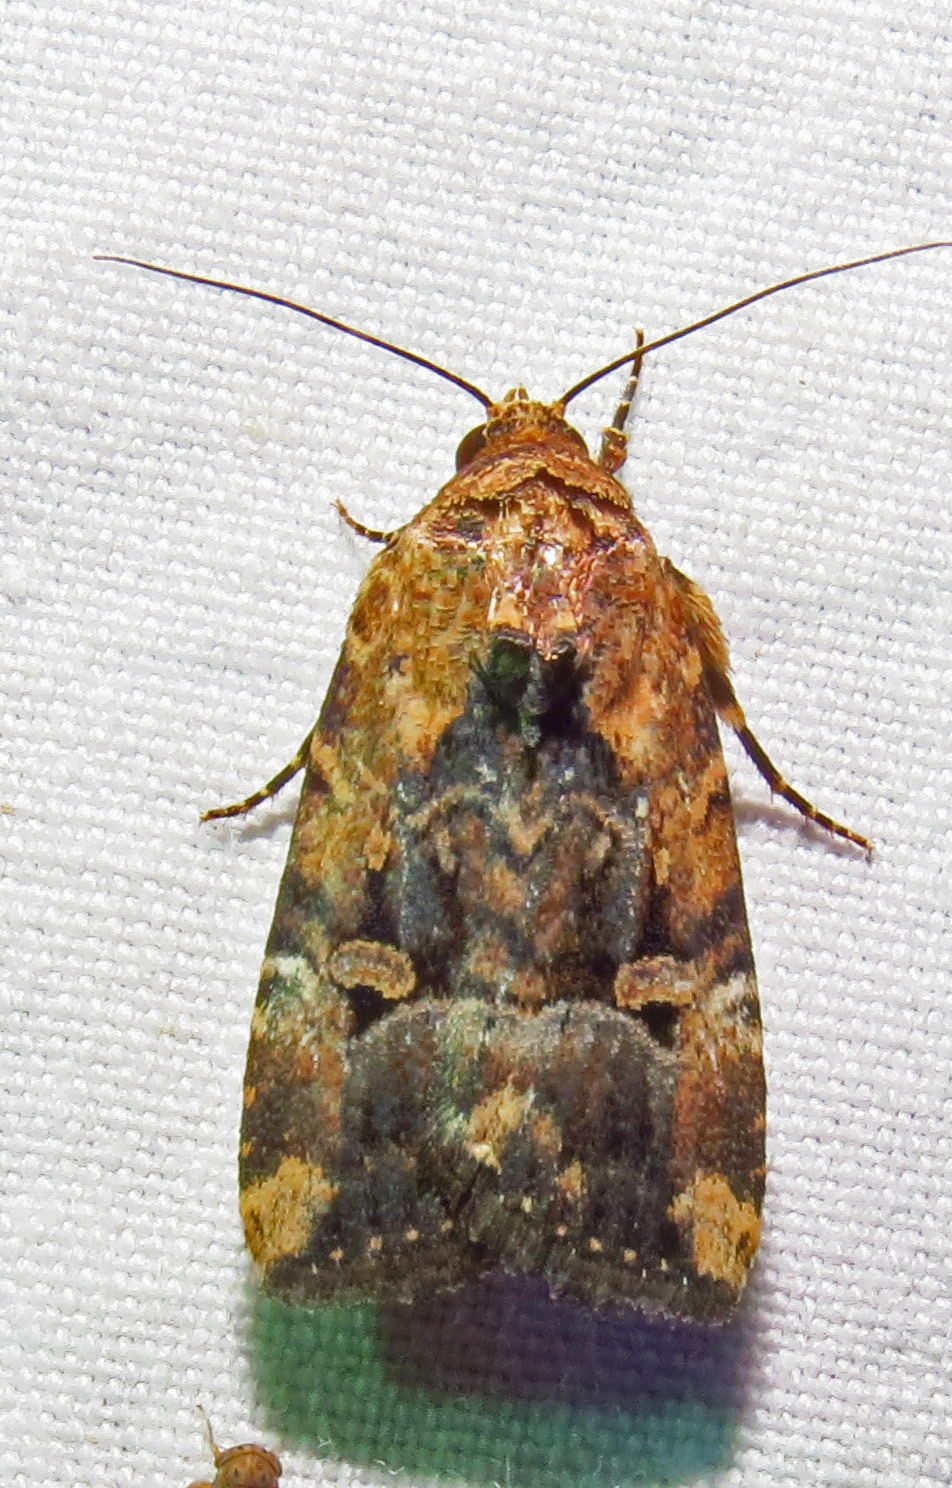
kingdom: Animalia
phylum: Arthropoda
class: Insecta
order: Lepidoptera
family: Noctuidae
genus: Elaphria
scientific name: Elaphria chalcedonia
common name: Chalcedony midget
